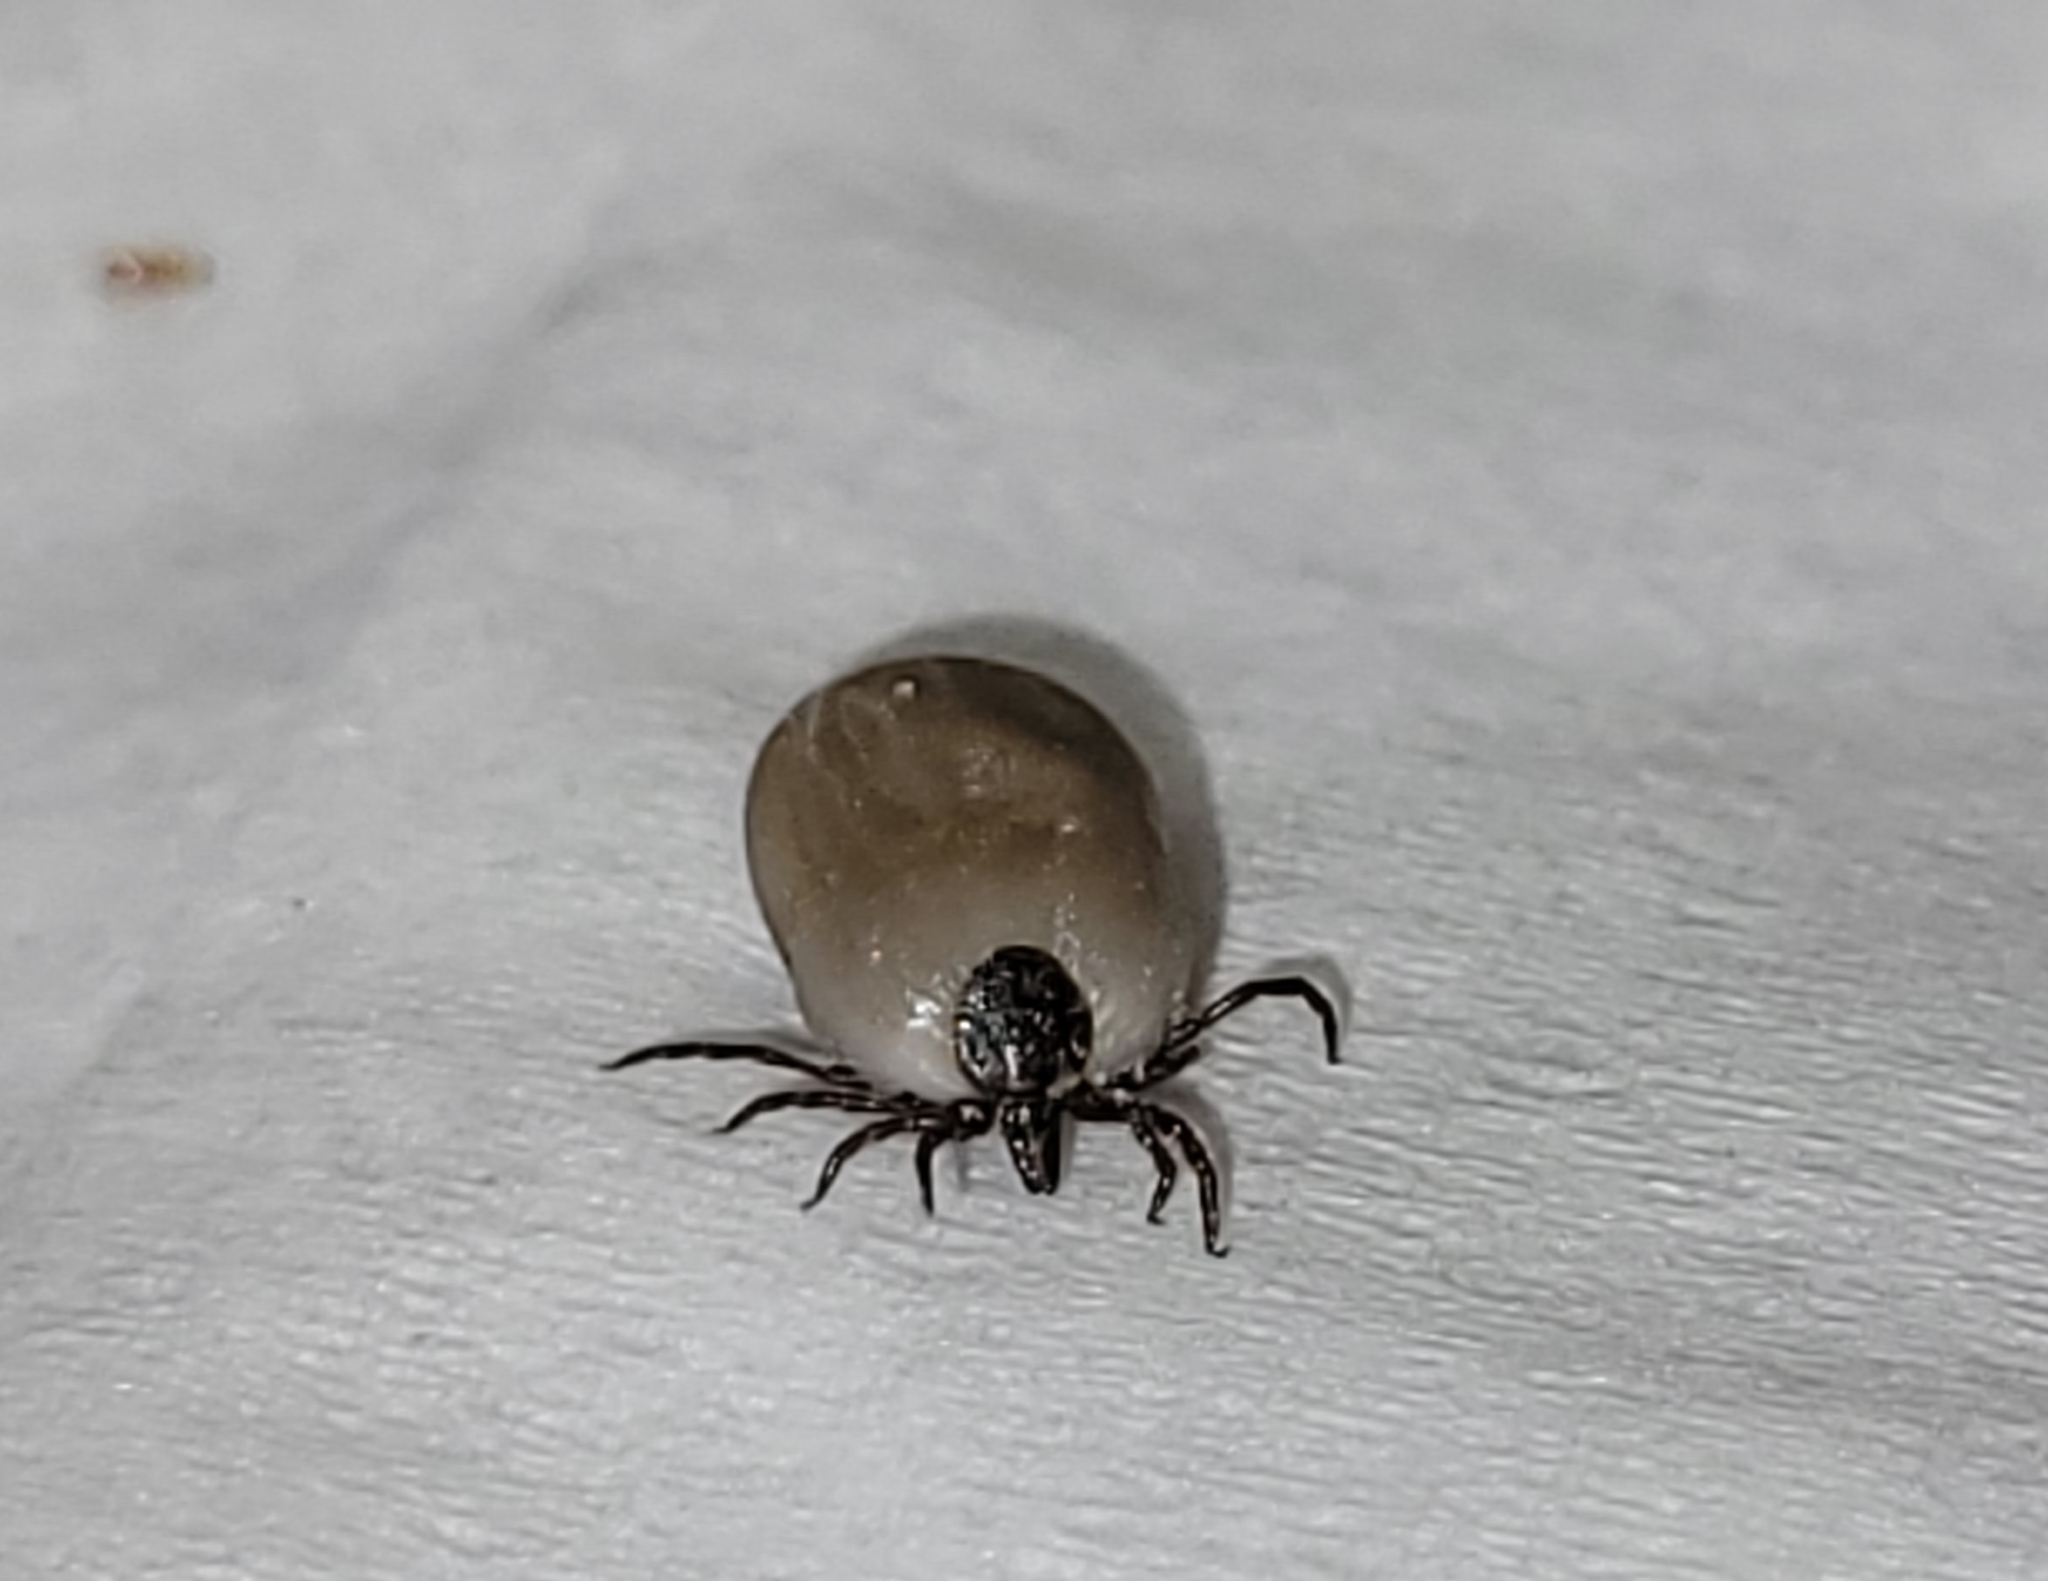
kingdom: Animalia
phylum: Arthropoda
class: Arachnida
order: Ixodida
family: Ixodidae
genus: Ixodes
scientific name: Ixodes ricinus
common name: Castor bean tick
